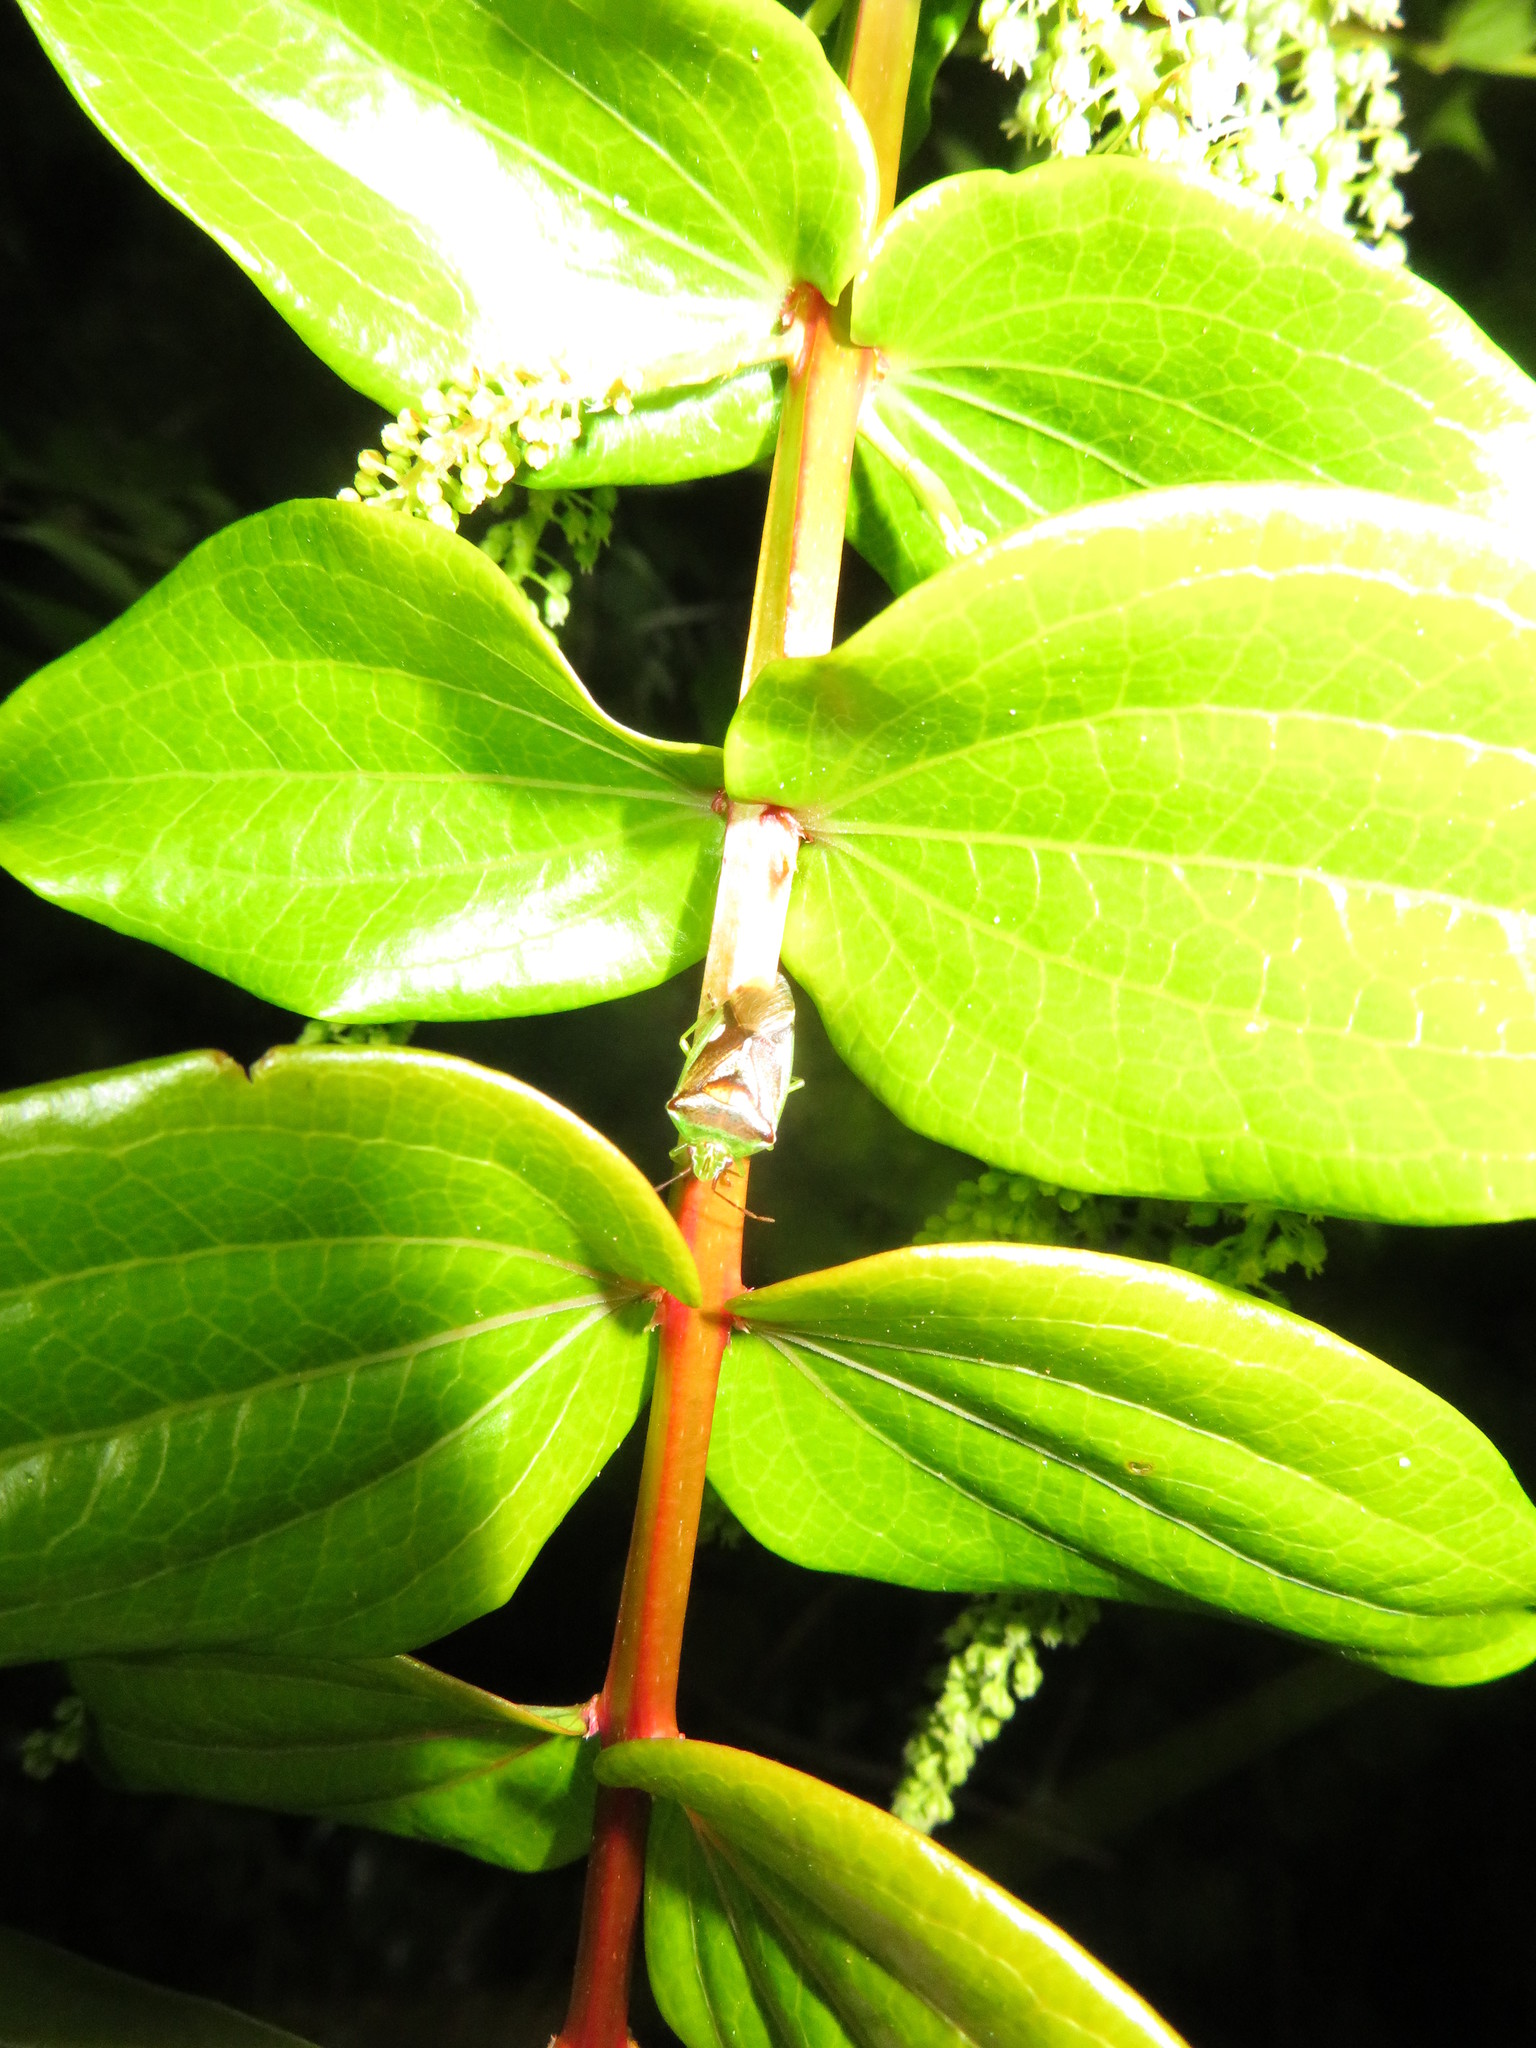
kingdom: Animalia
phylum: Arthropoda
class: Insecta
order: Hemiptera
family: Acanthosomatidae
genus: Oncacontias
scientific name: Oncacontias vittatus
